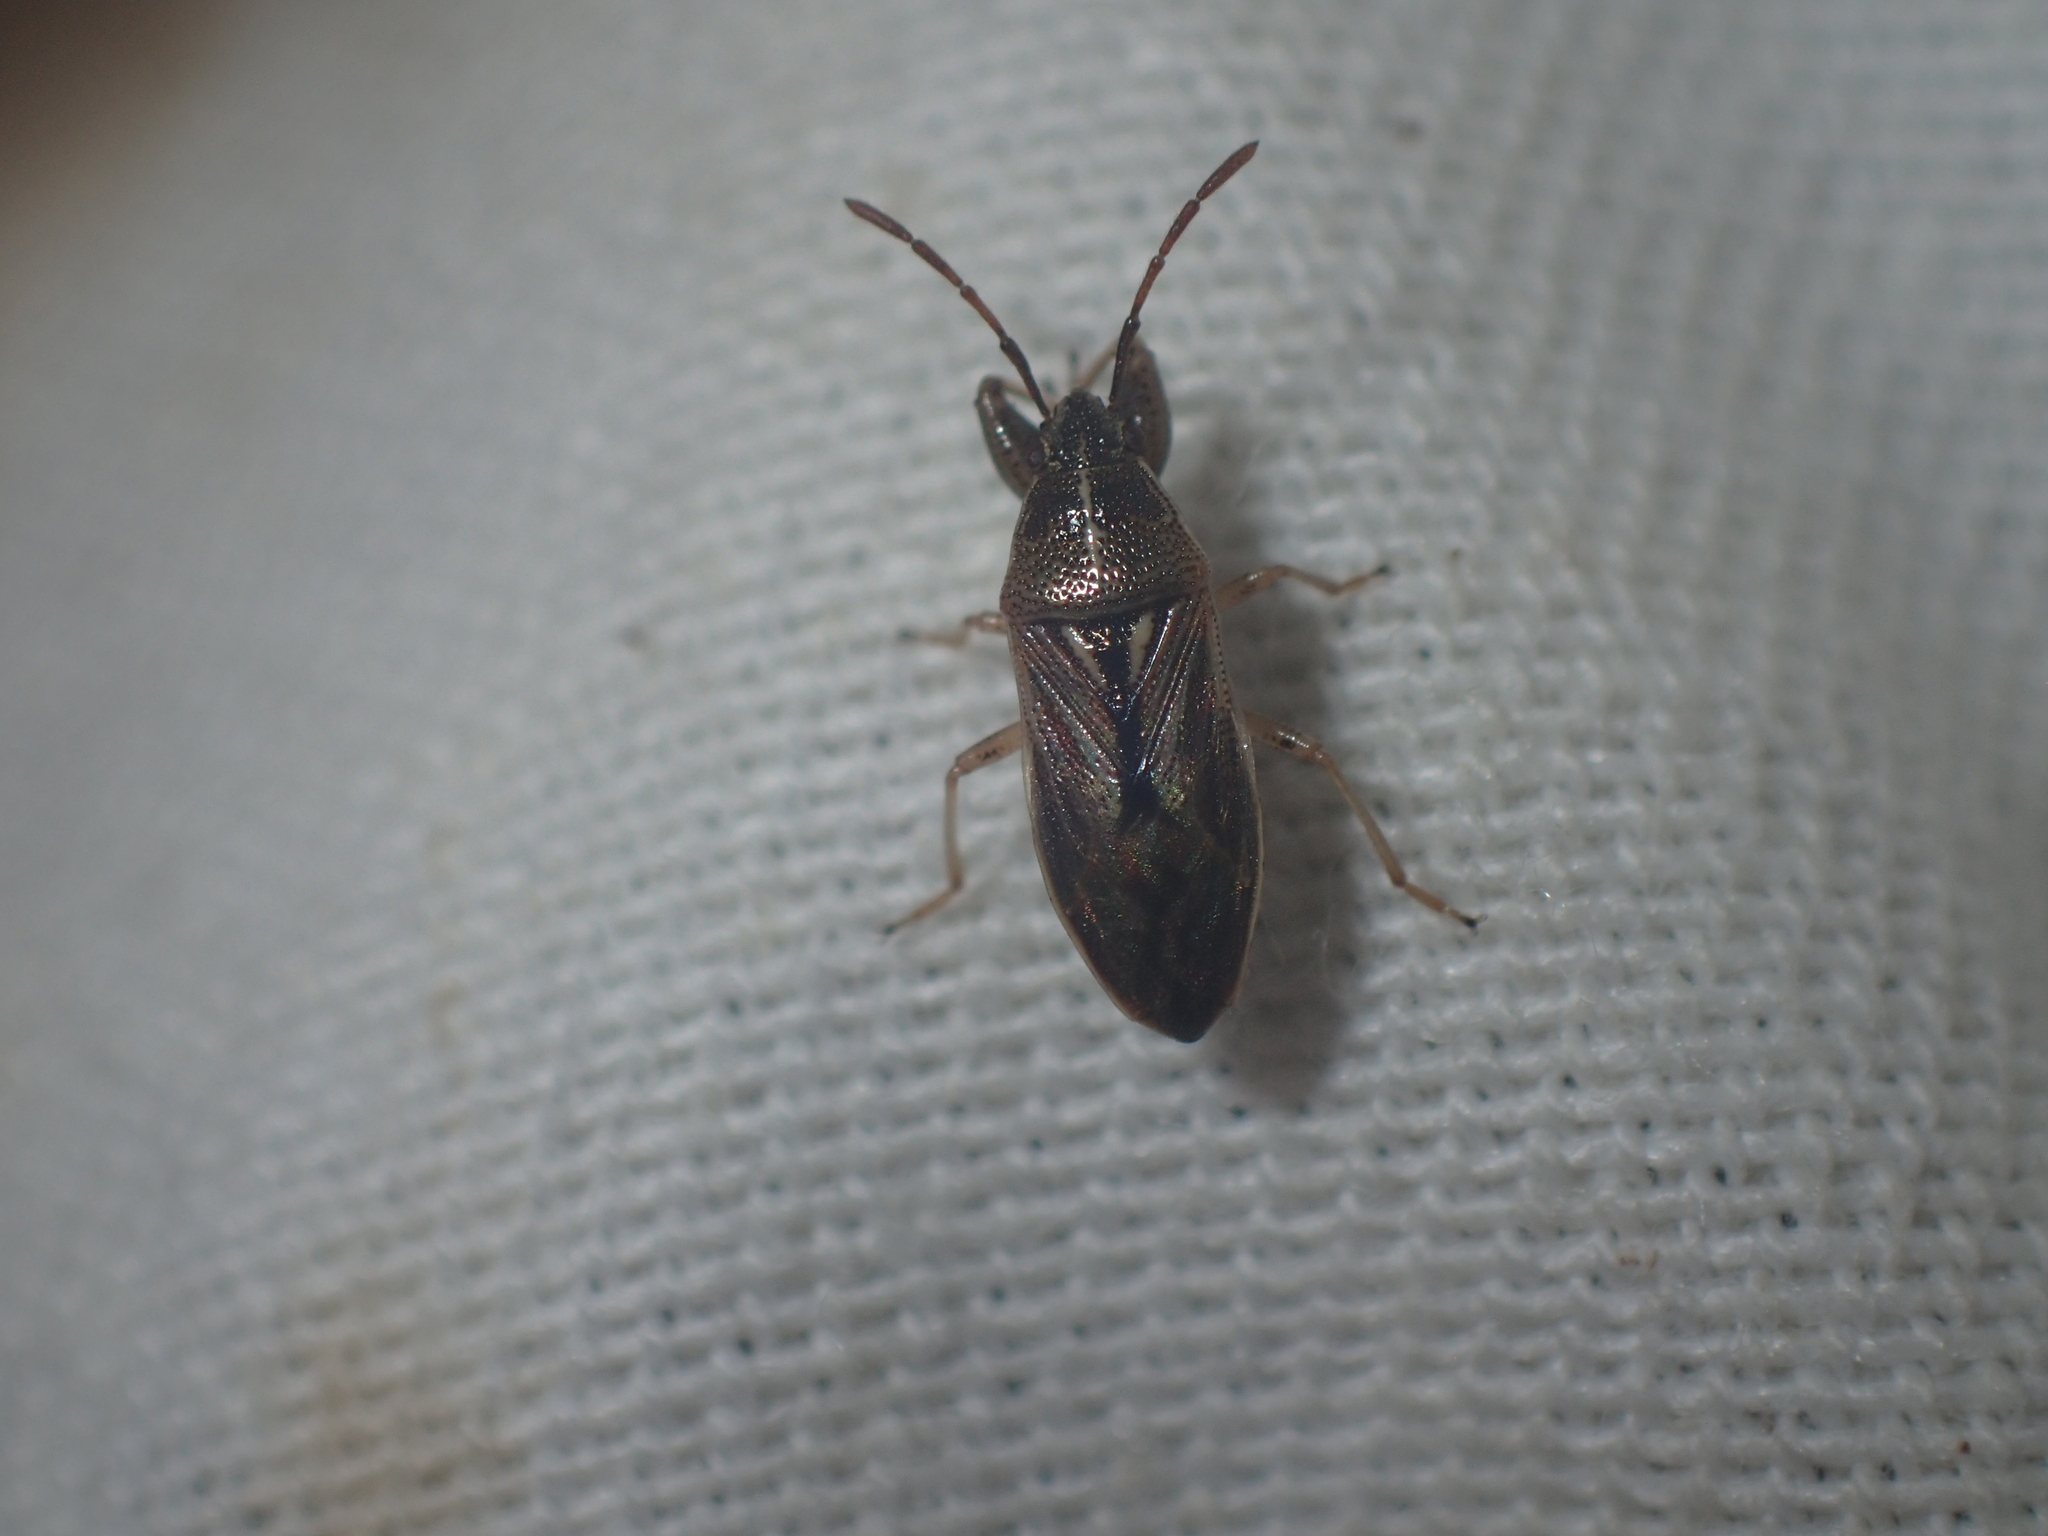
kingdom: Animalia
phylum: Arthropoda
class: Insecta
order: Hemiptera
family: Pachygronthidae
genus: Oedancala
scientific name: Oedancala dorsalis
